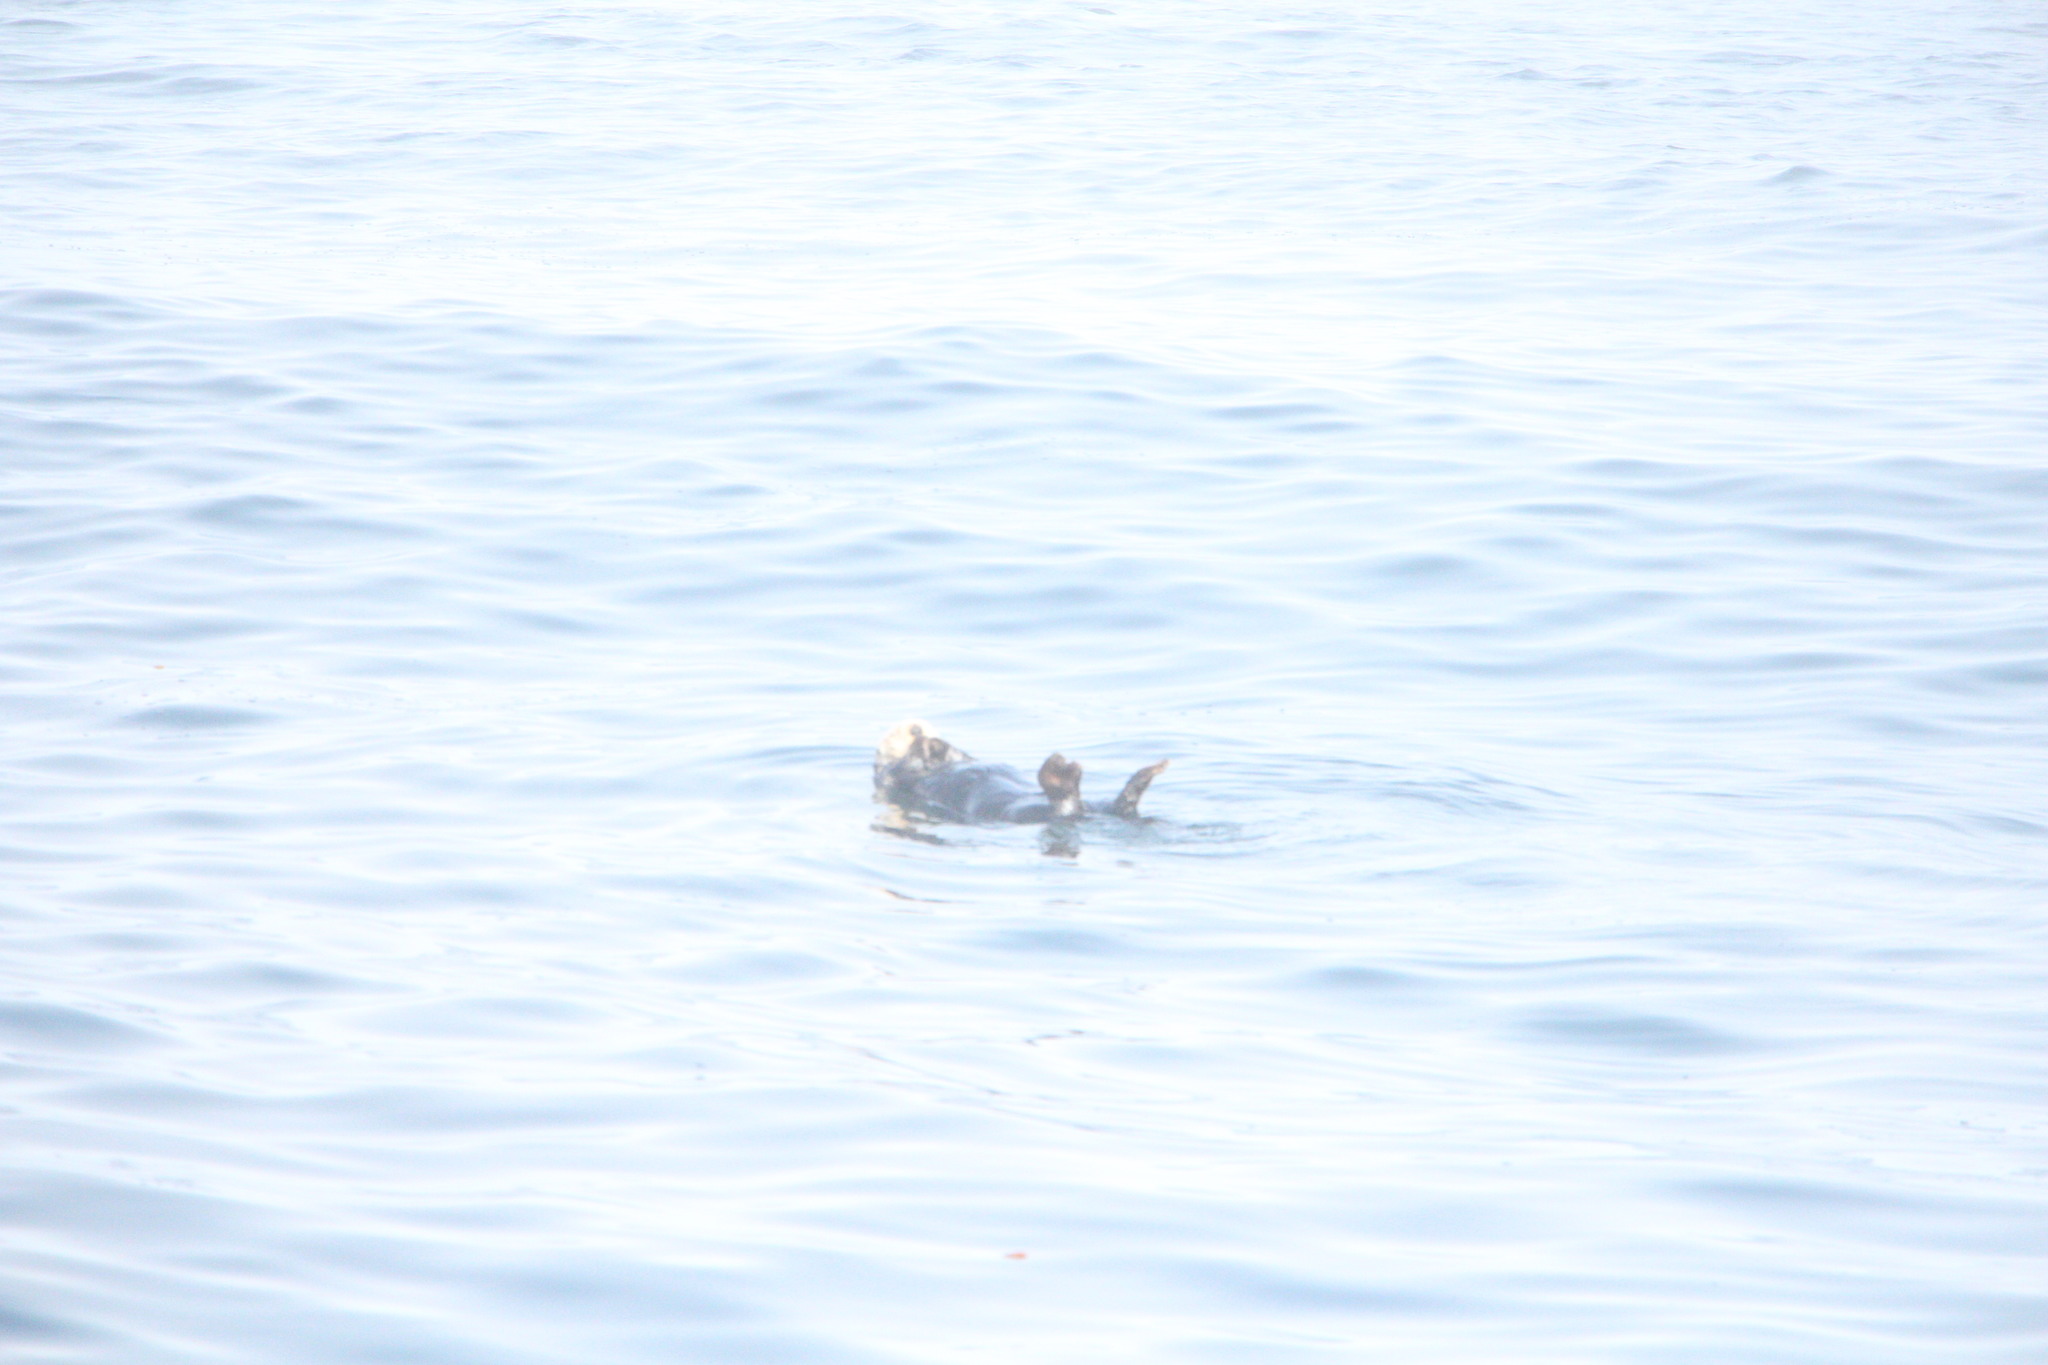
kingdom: Animalia
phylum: Chordata
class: Mammalia
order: Carnivora
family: Mustelidae
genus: Enhydra
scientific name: Enhydra lutris
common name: Sea otter
